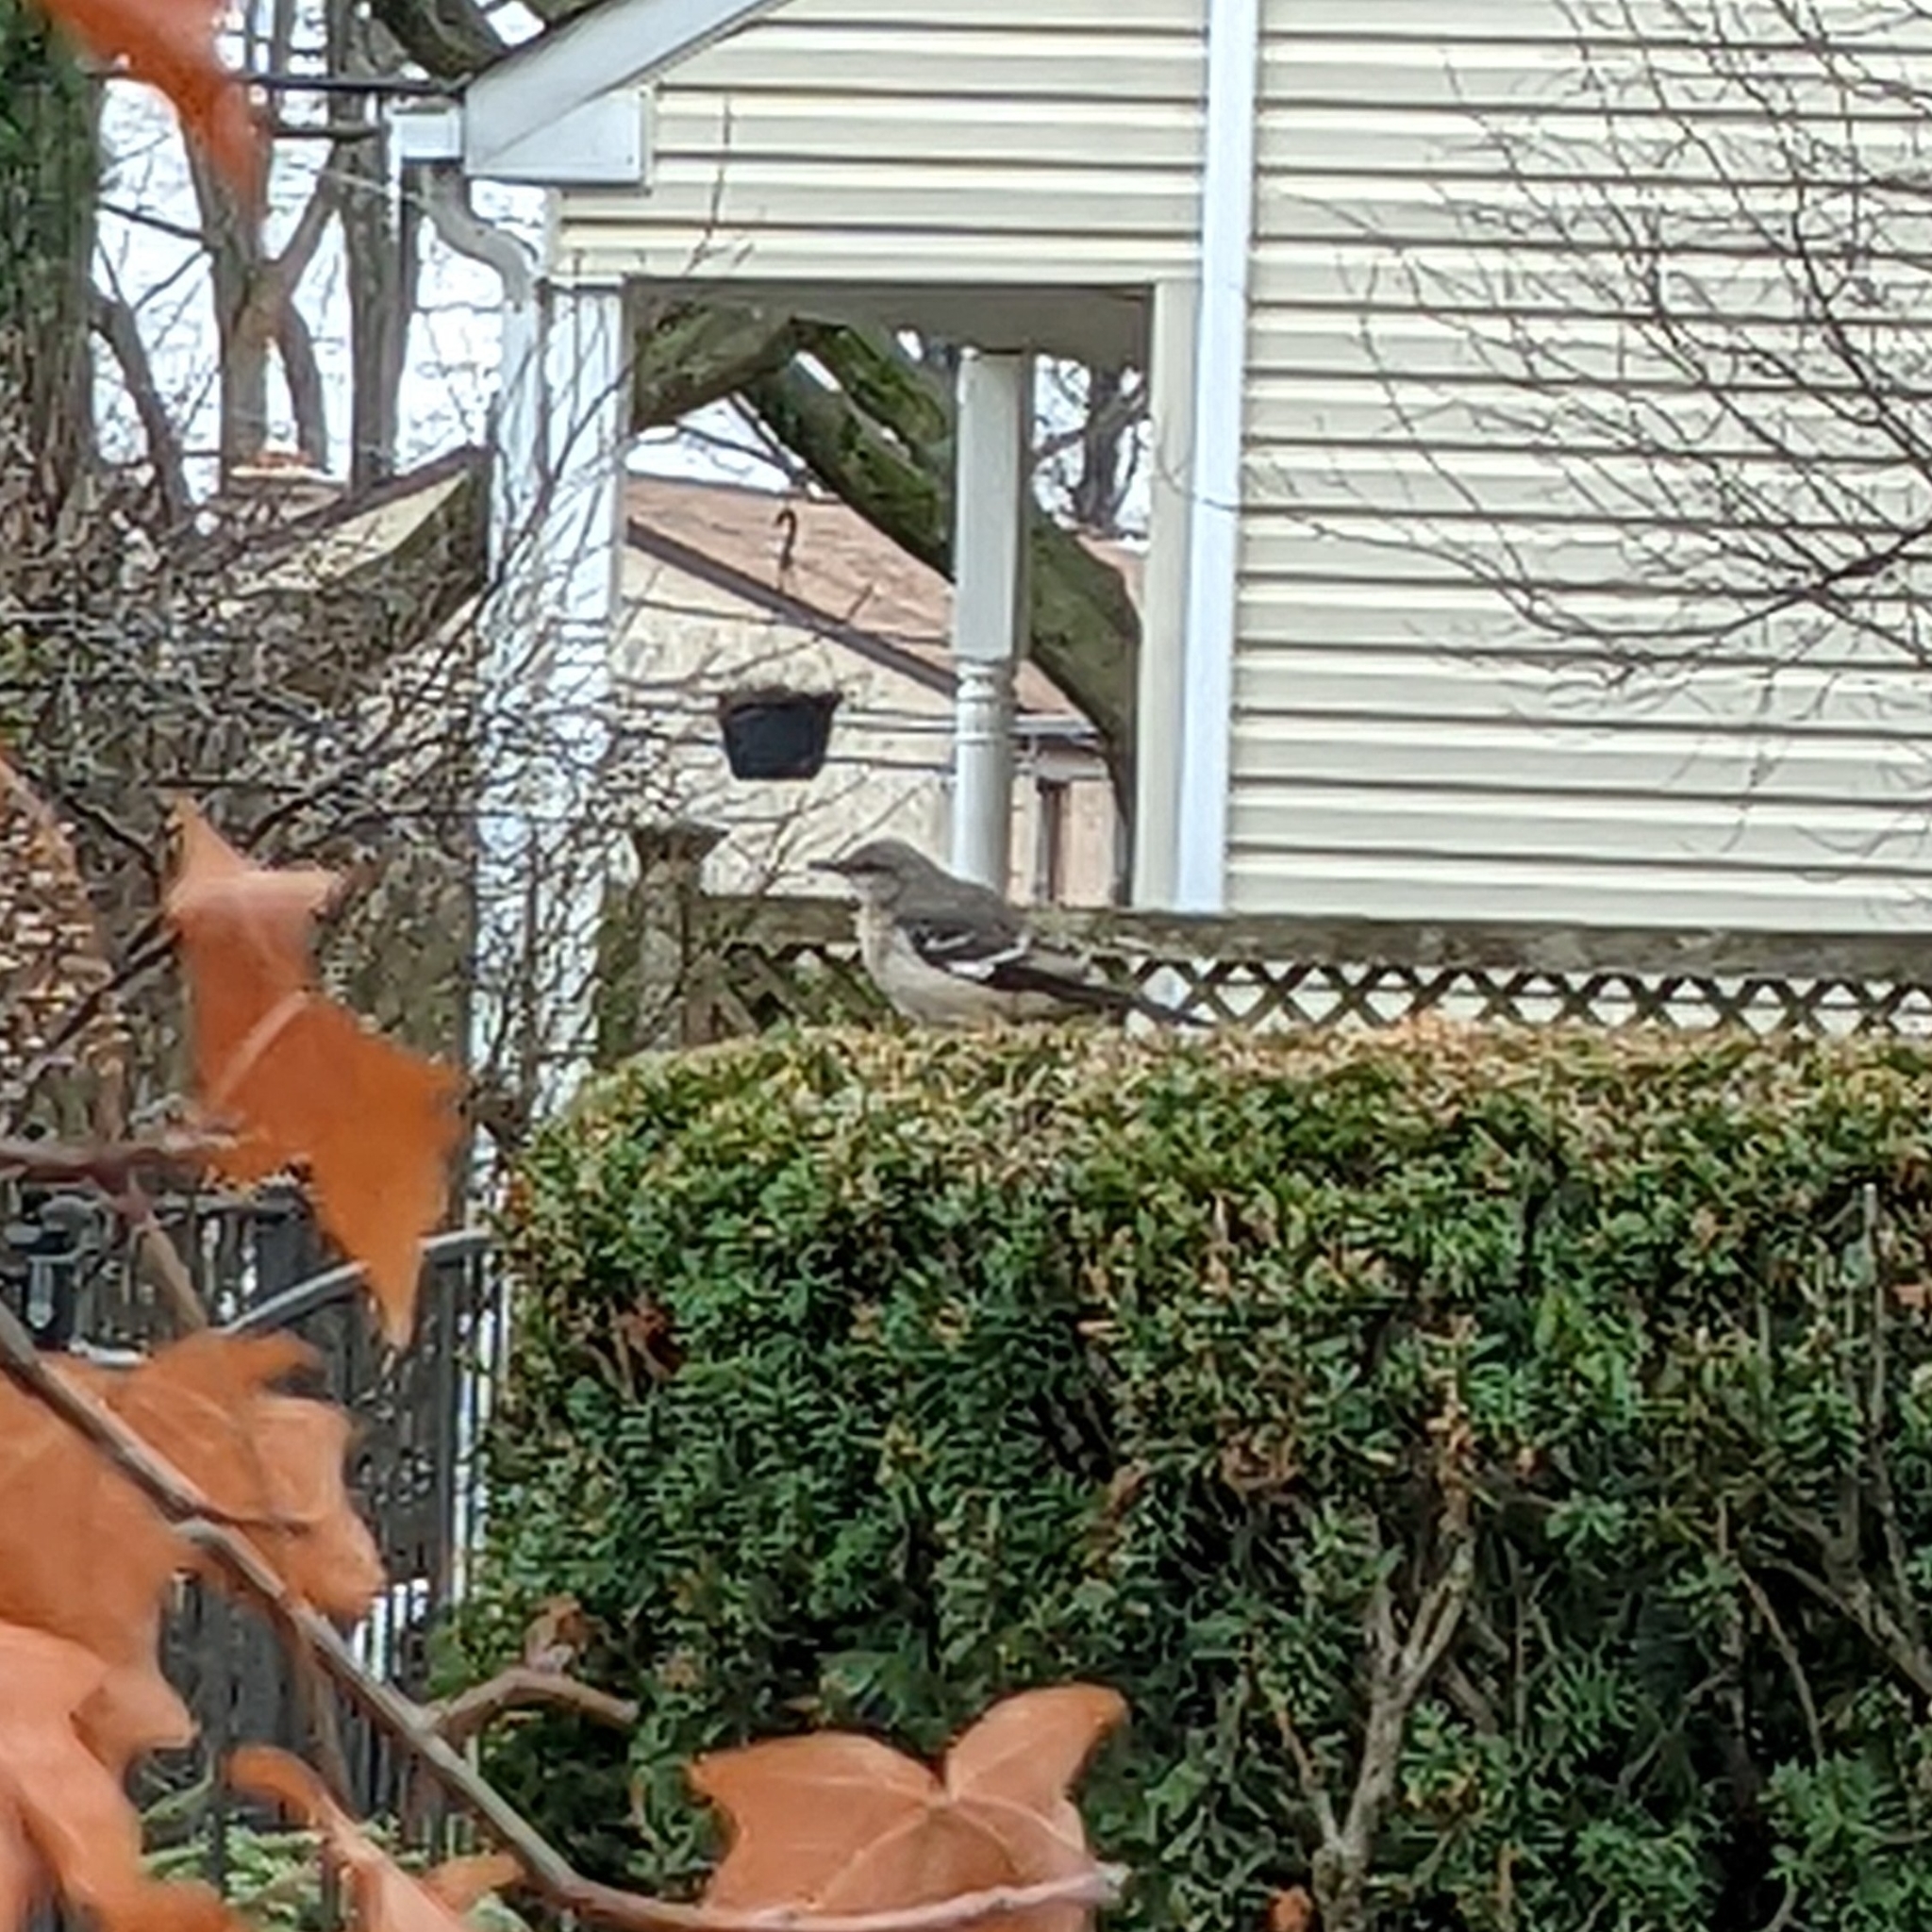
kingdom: Animalia
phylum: Chordata
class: Aves
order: Passeriformes
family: Mimidae
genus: Mimus
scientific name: Mimus polyglottos
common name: Northern mockingbird
